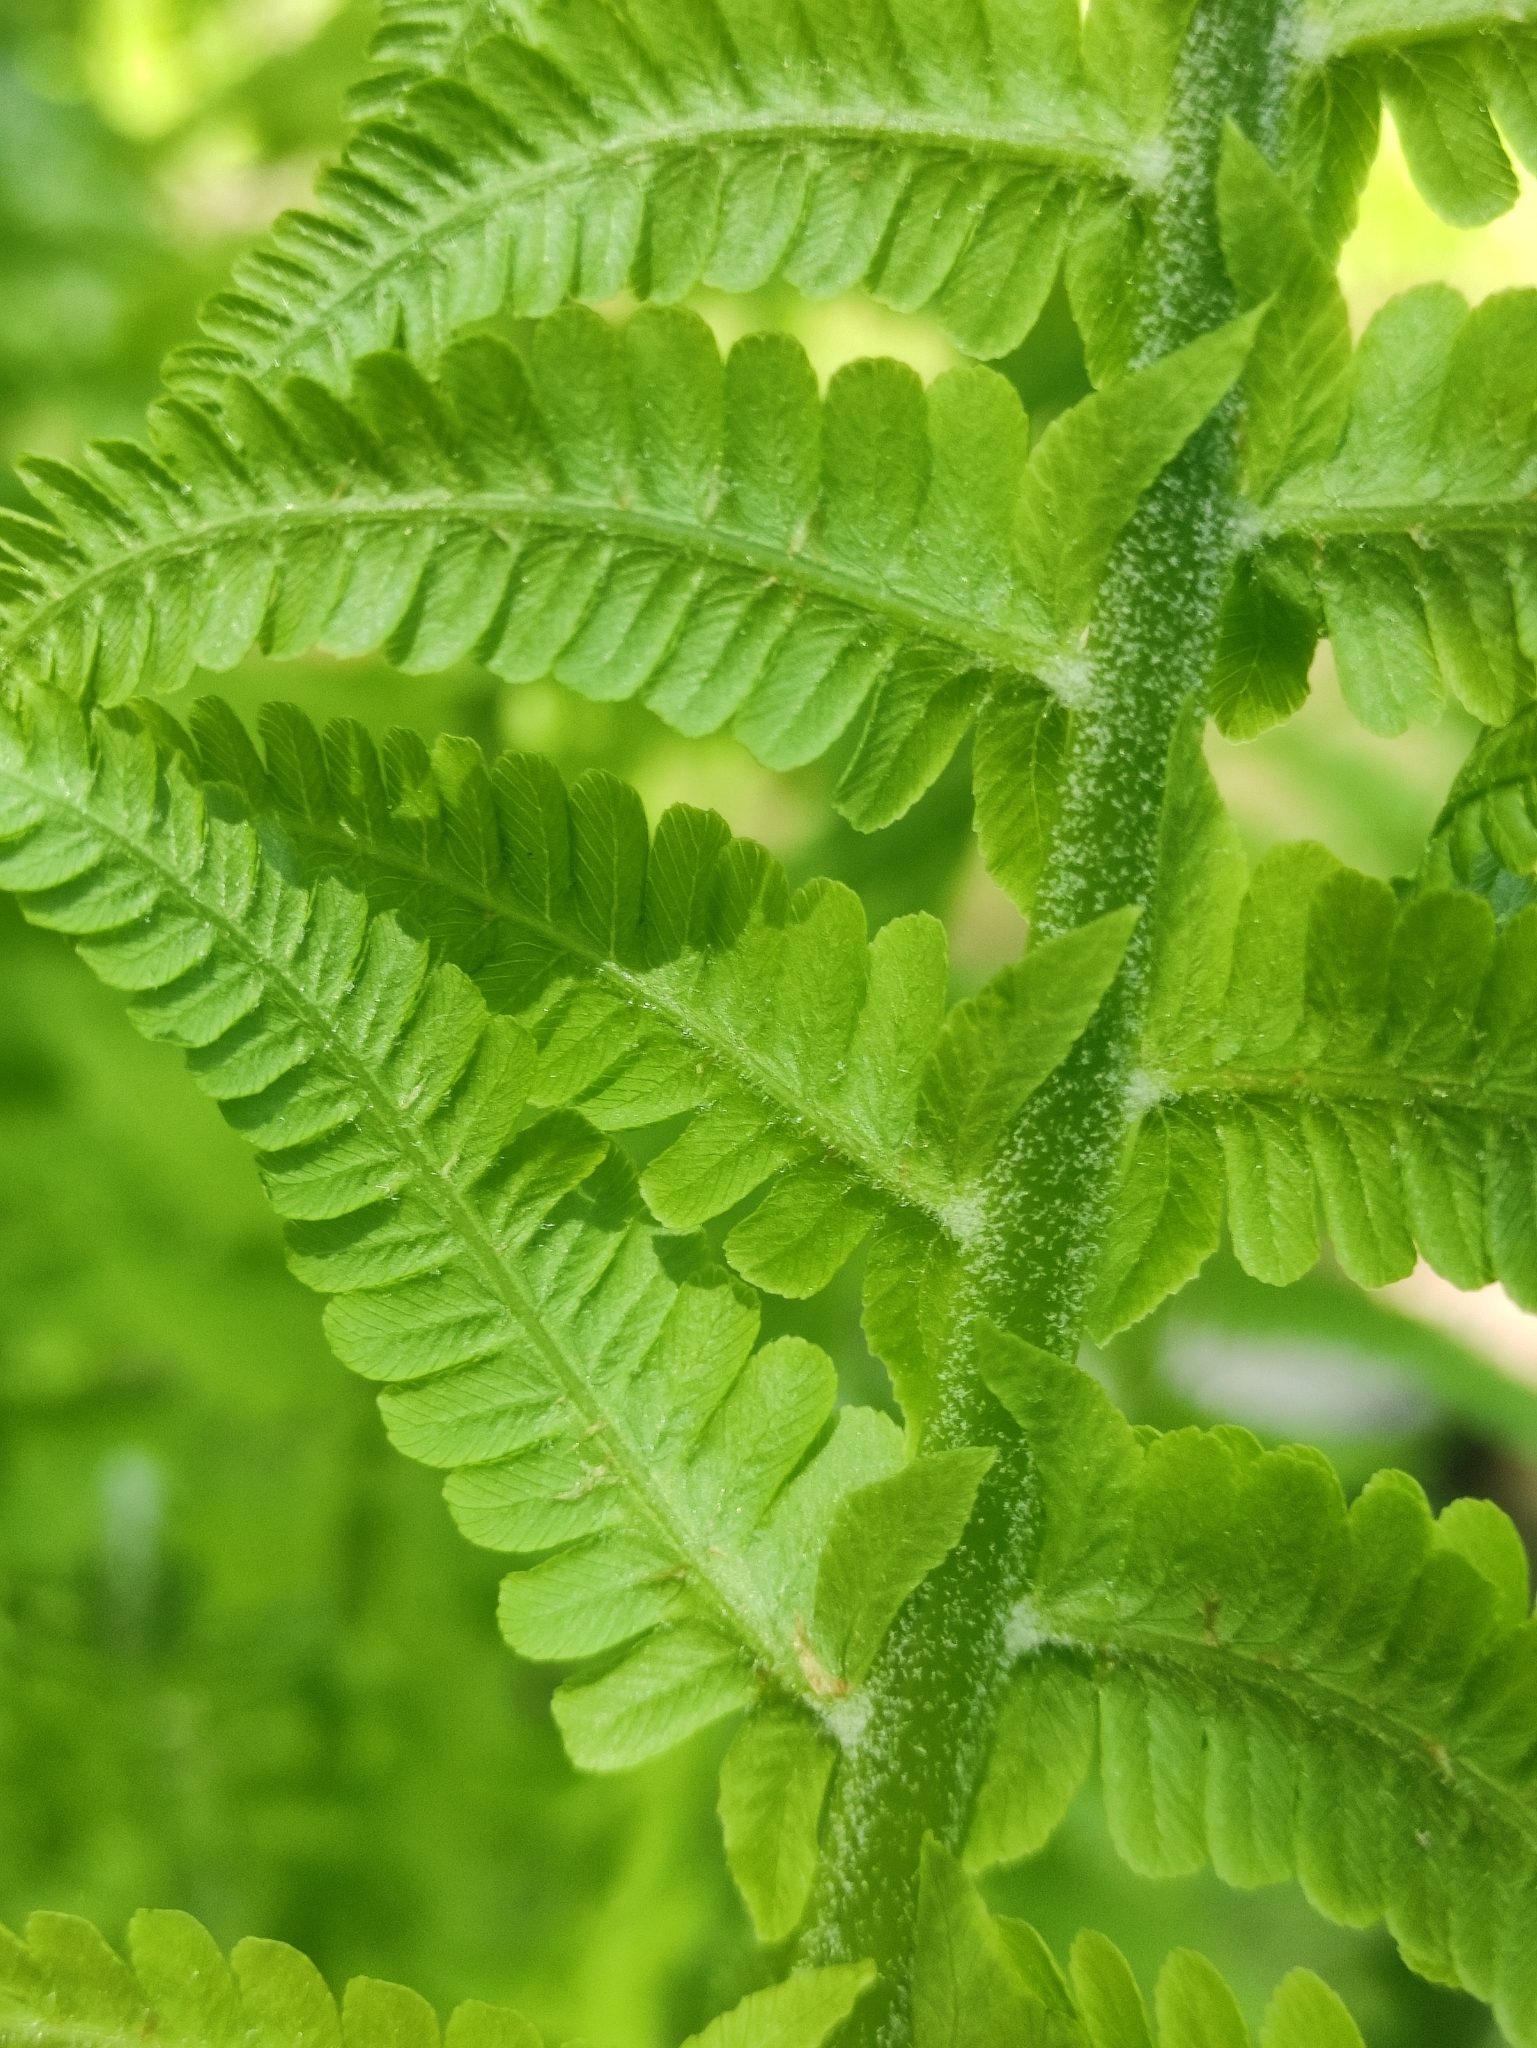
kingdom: Plantae
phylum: Tracheophyta
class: Polypodiopsida
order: Polypodiales
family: Onocleaceae
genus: Matteuccia
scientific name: Matteuccia struthiopteris
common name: Ostrich fern
